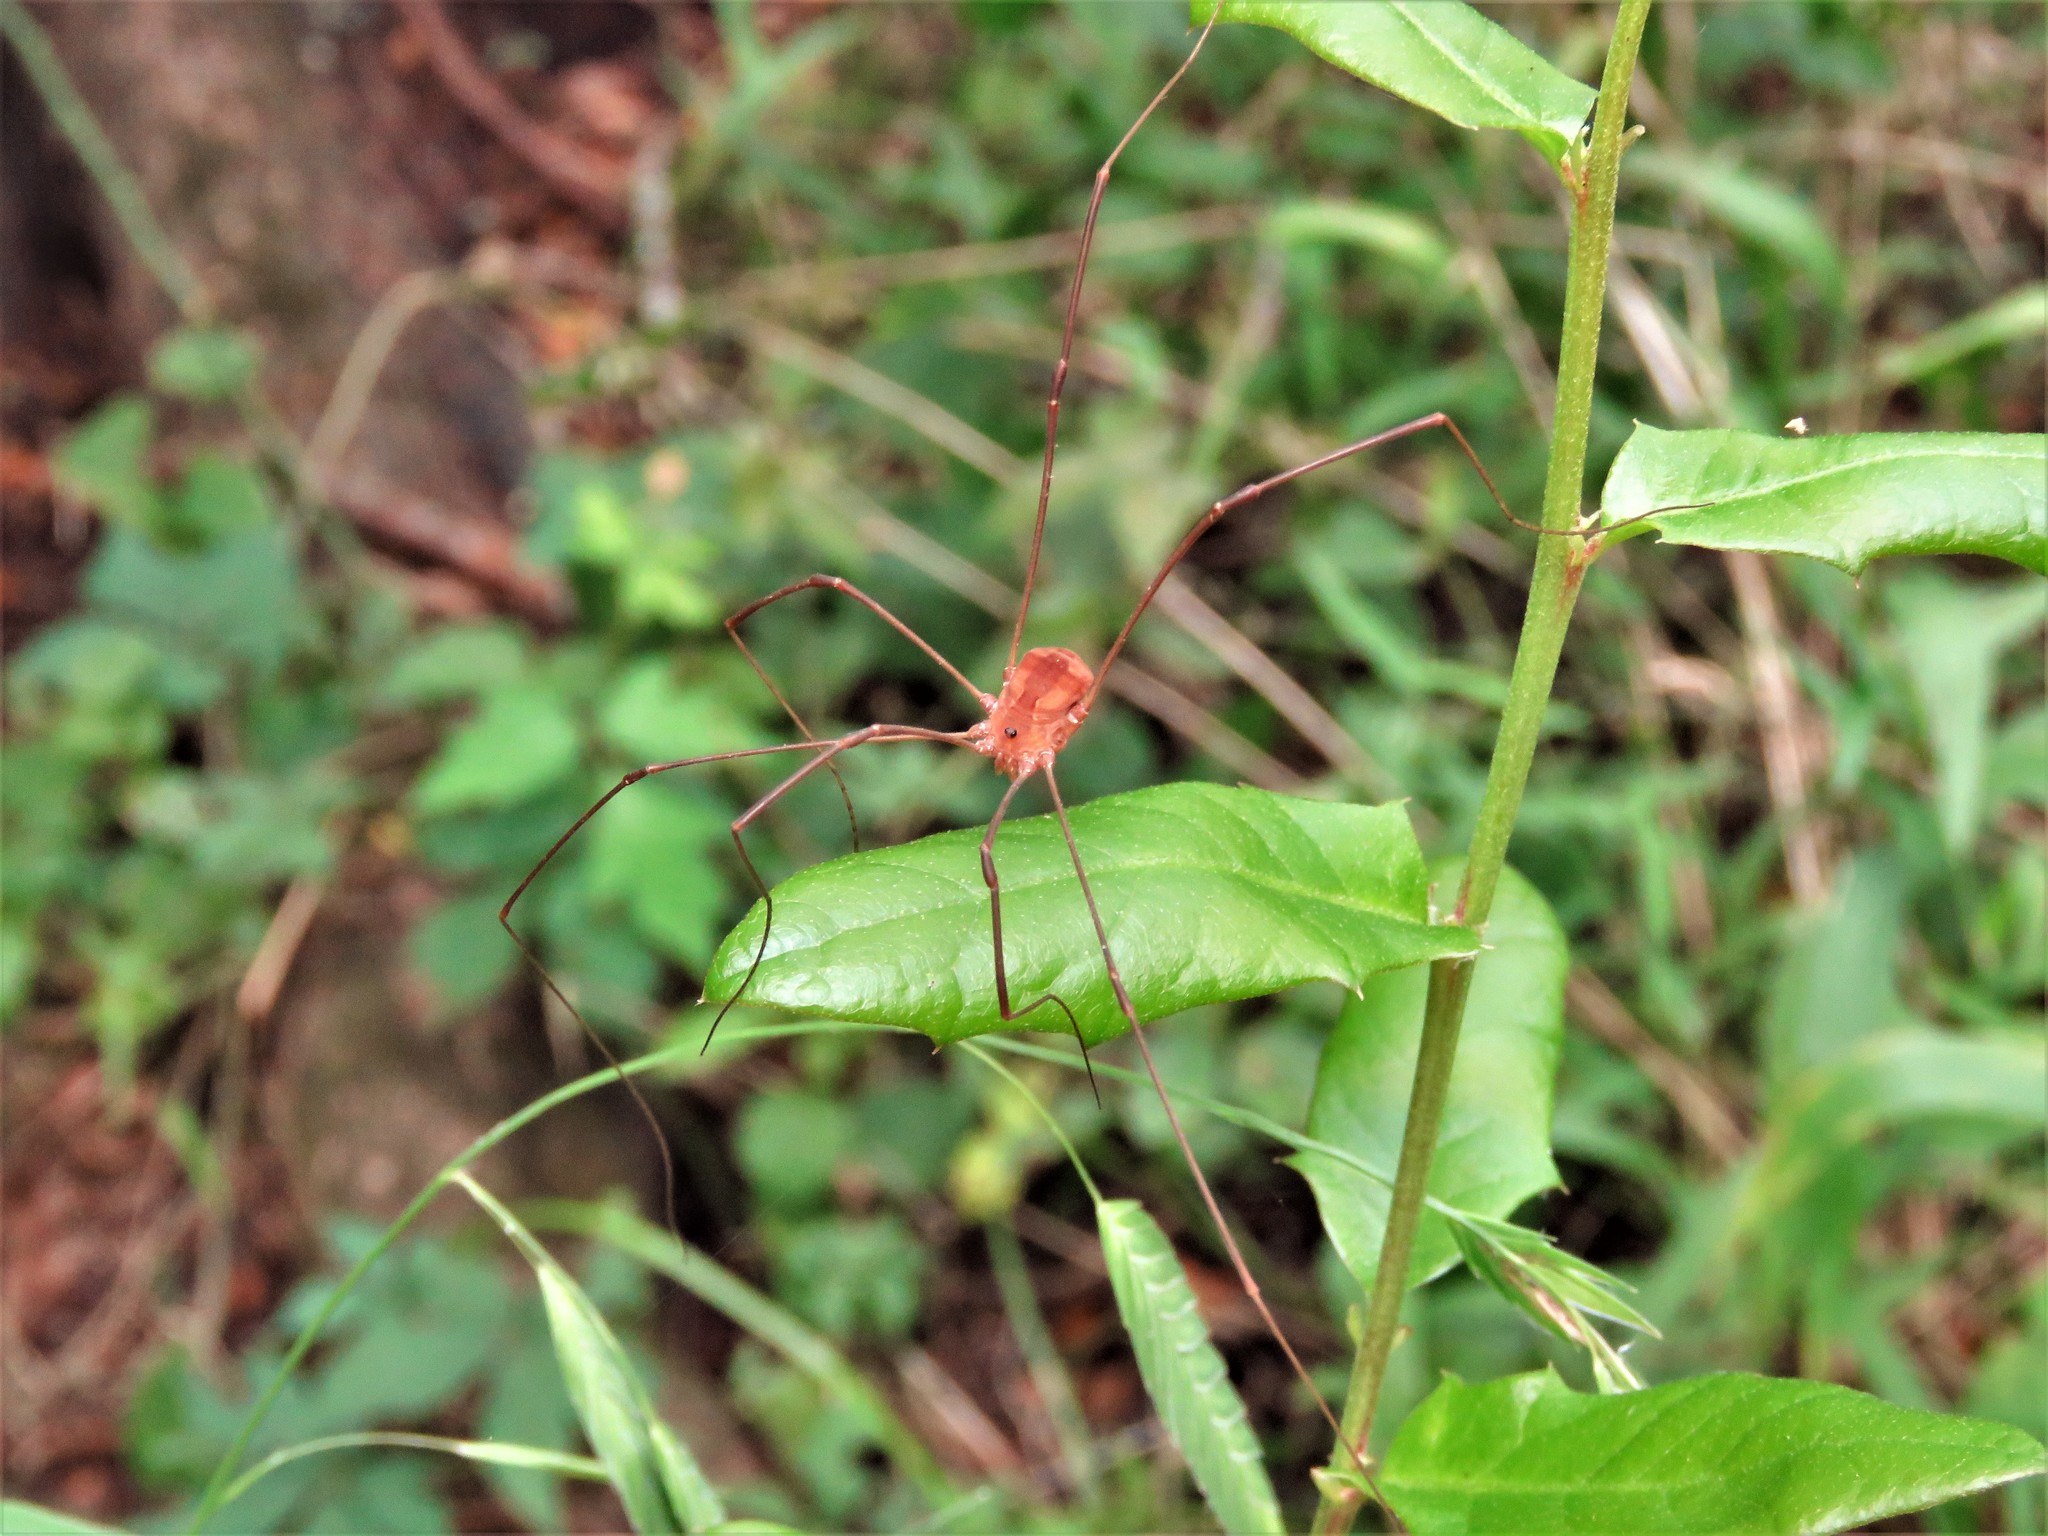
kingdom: Animalia
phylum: Arthropoda
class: Arachnida
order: Opiliones
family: Sclerosomatidae
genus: Leiobunum
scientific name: Leiobunum flavum
